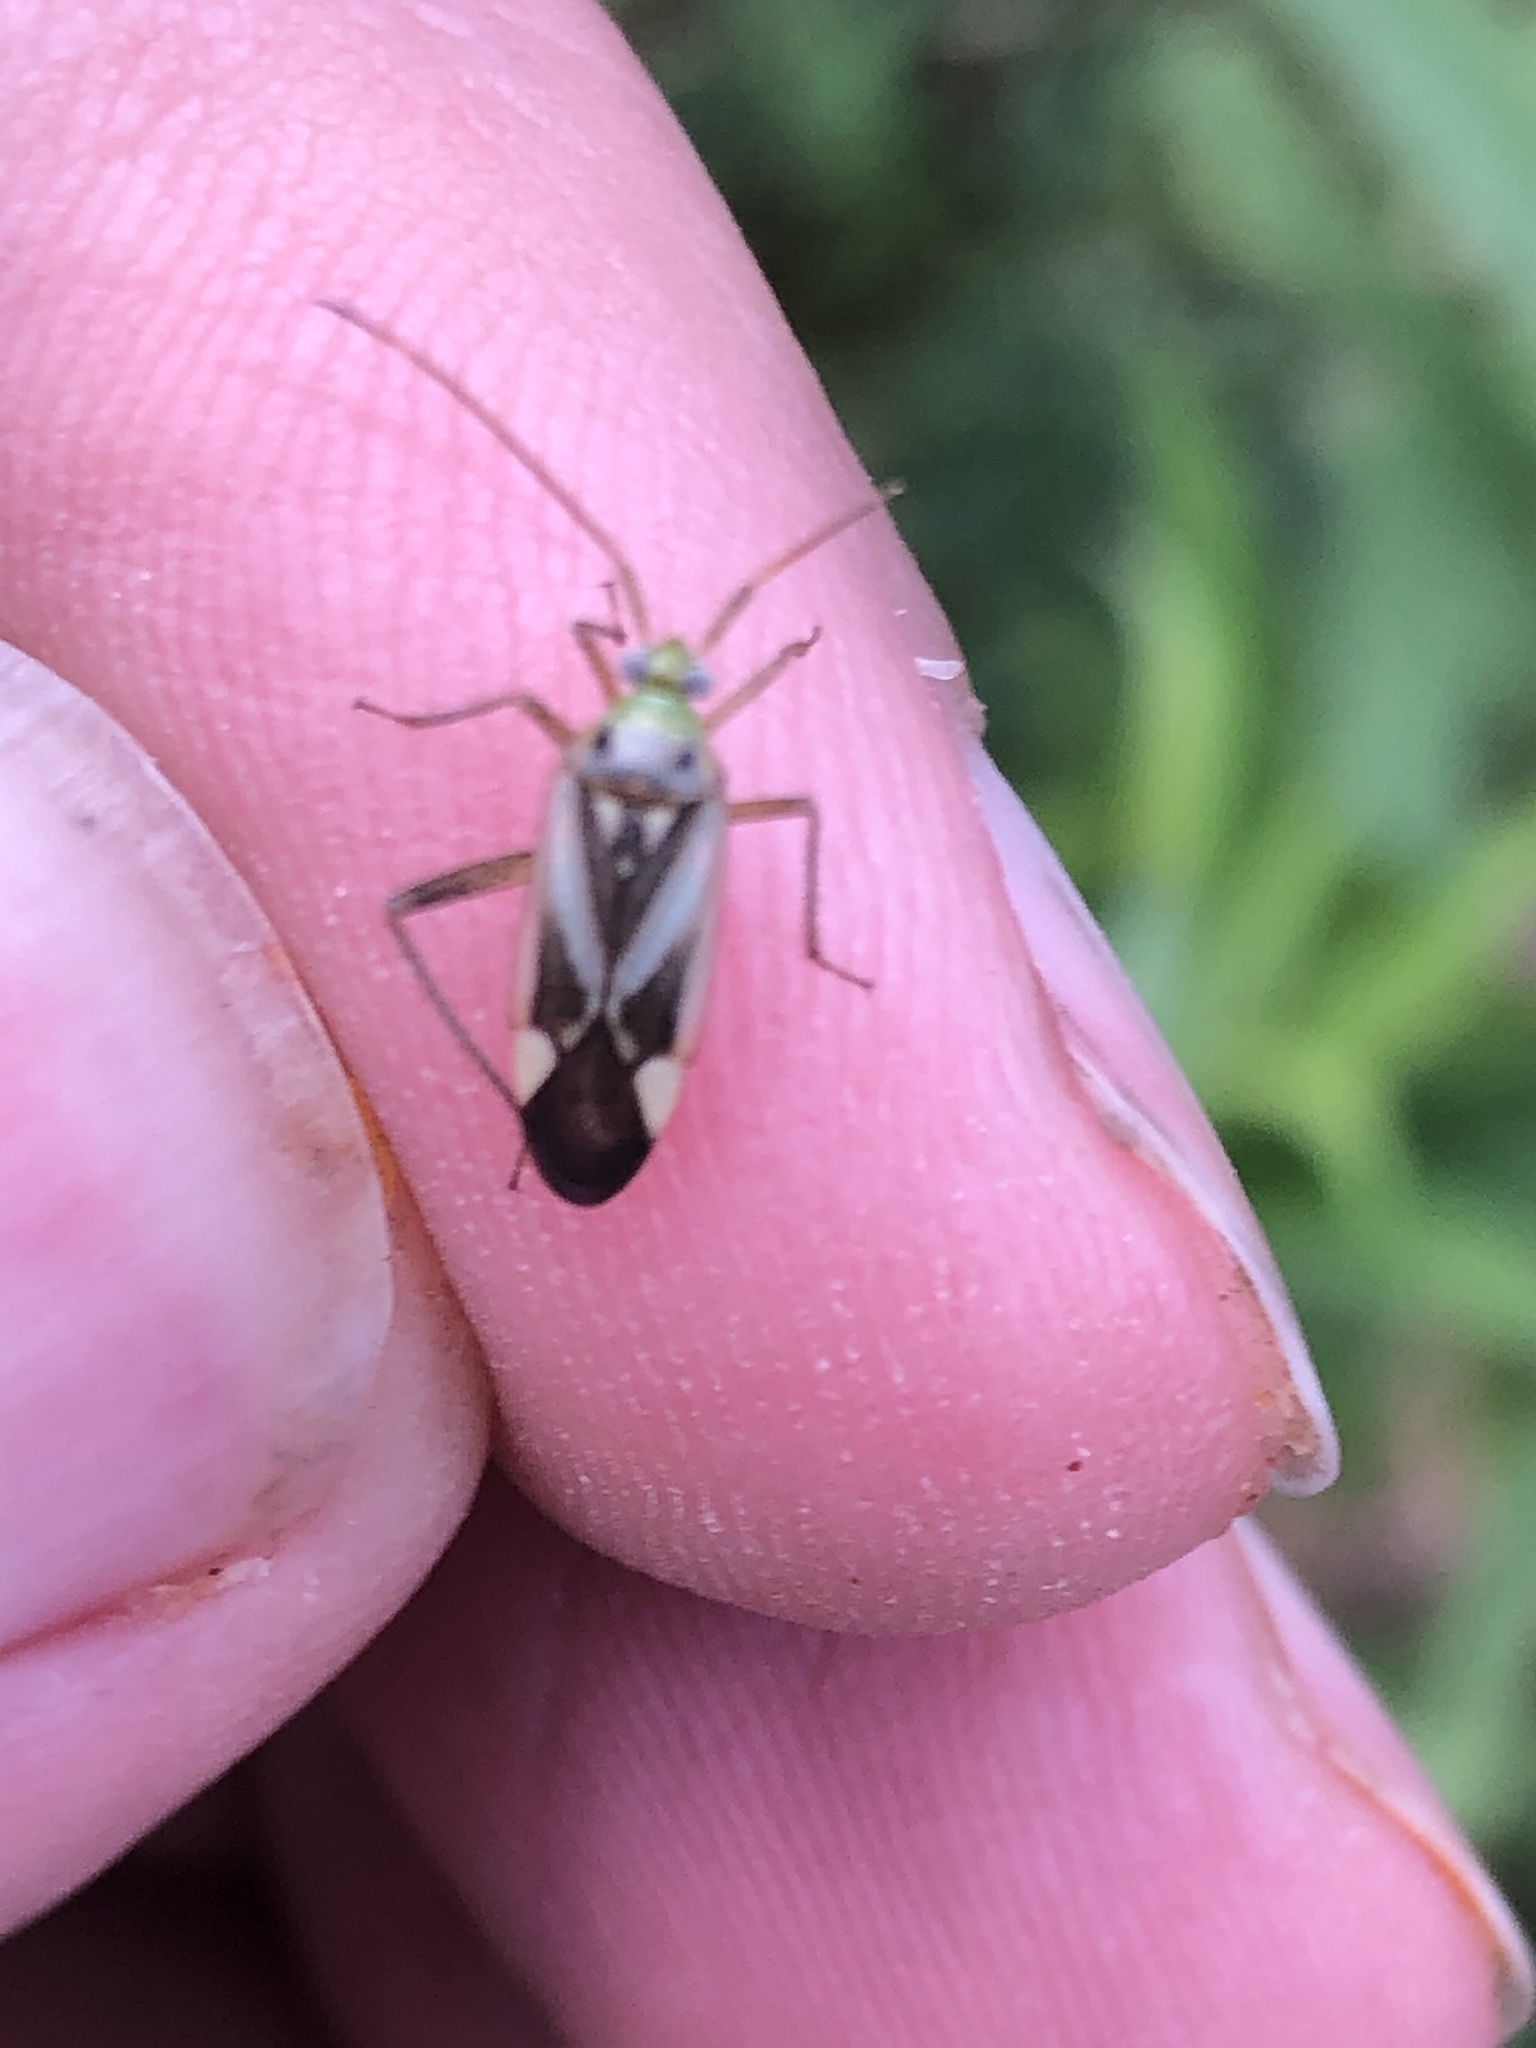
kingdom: Animalia
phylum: Arthropoda
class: Insecta
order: Hemiptera
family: Miridae
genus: Adelphocoris
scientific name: Adelphocoris lineolatus
